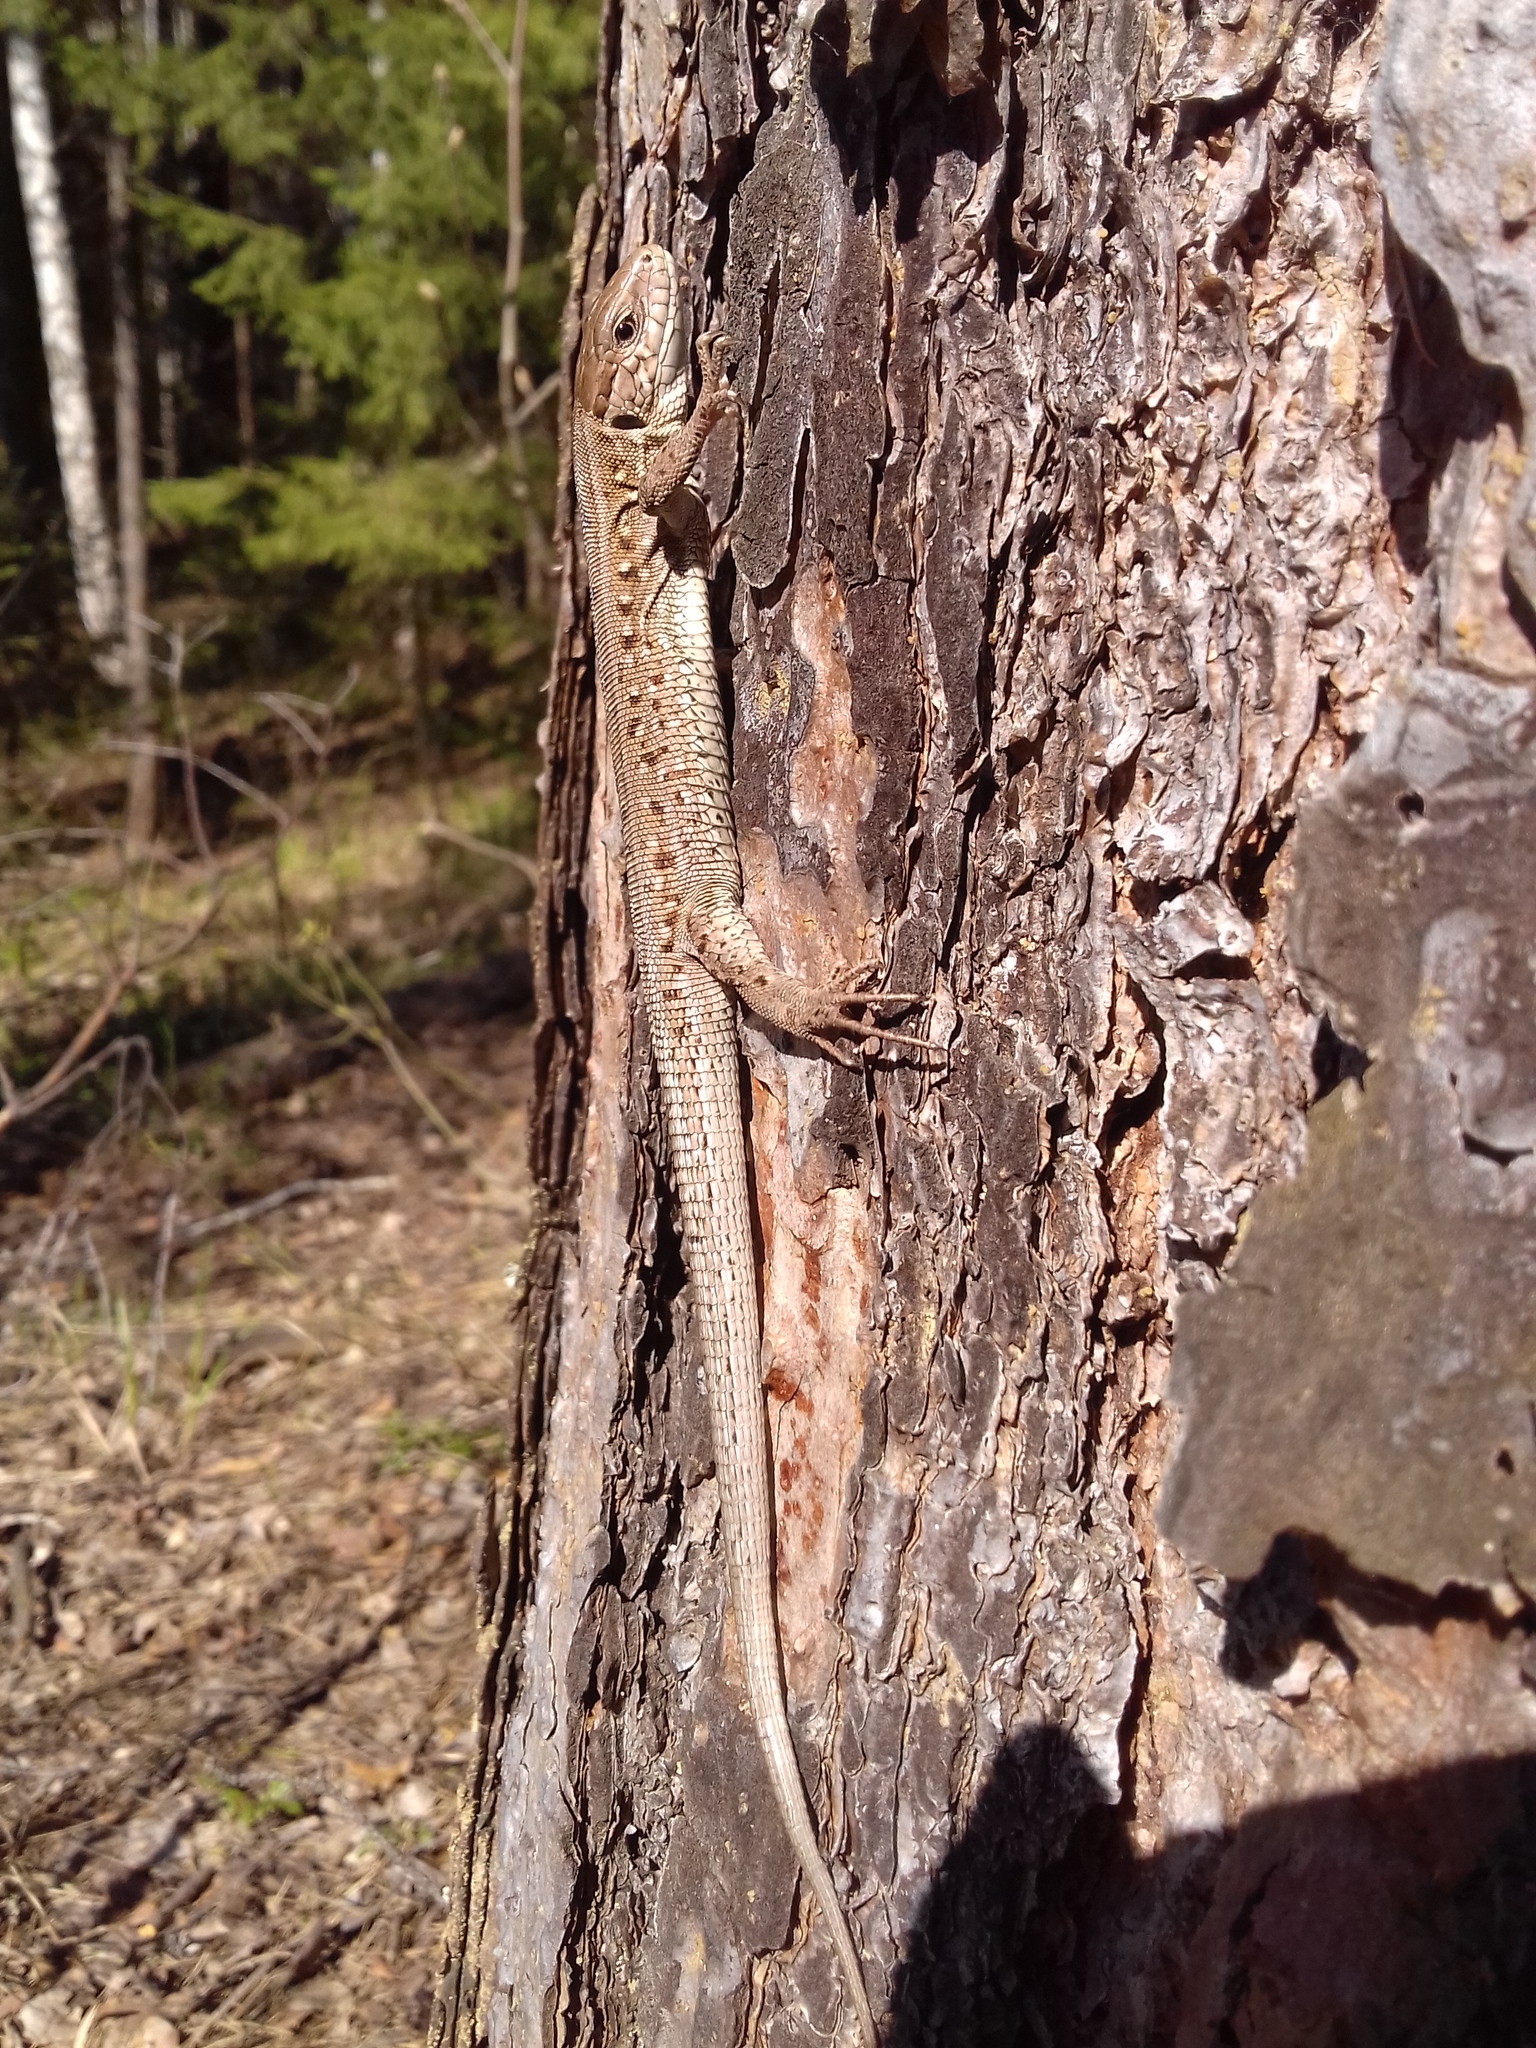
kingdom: Animalia
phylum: Chordata
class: Squamata
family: Lacertidae
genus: Lacerta
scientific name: Lacerta agilis
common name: Sand lizard
